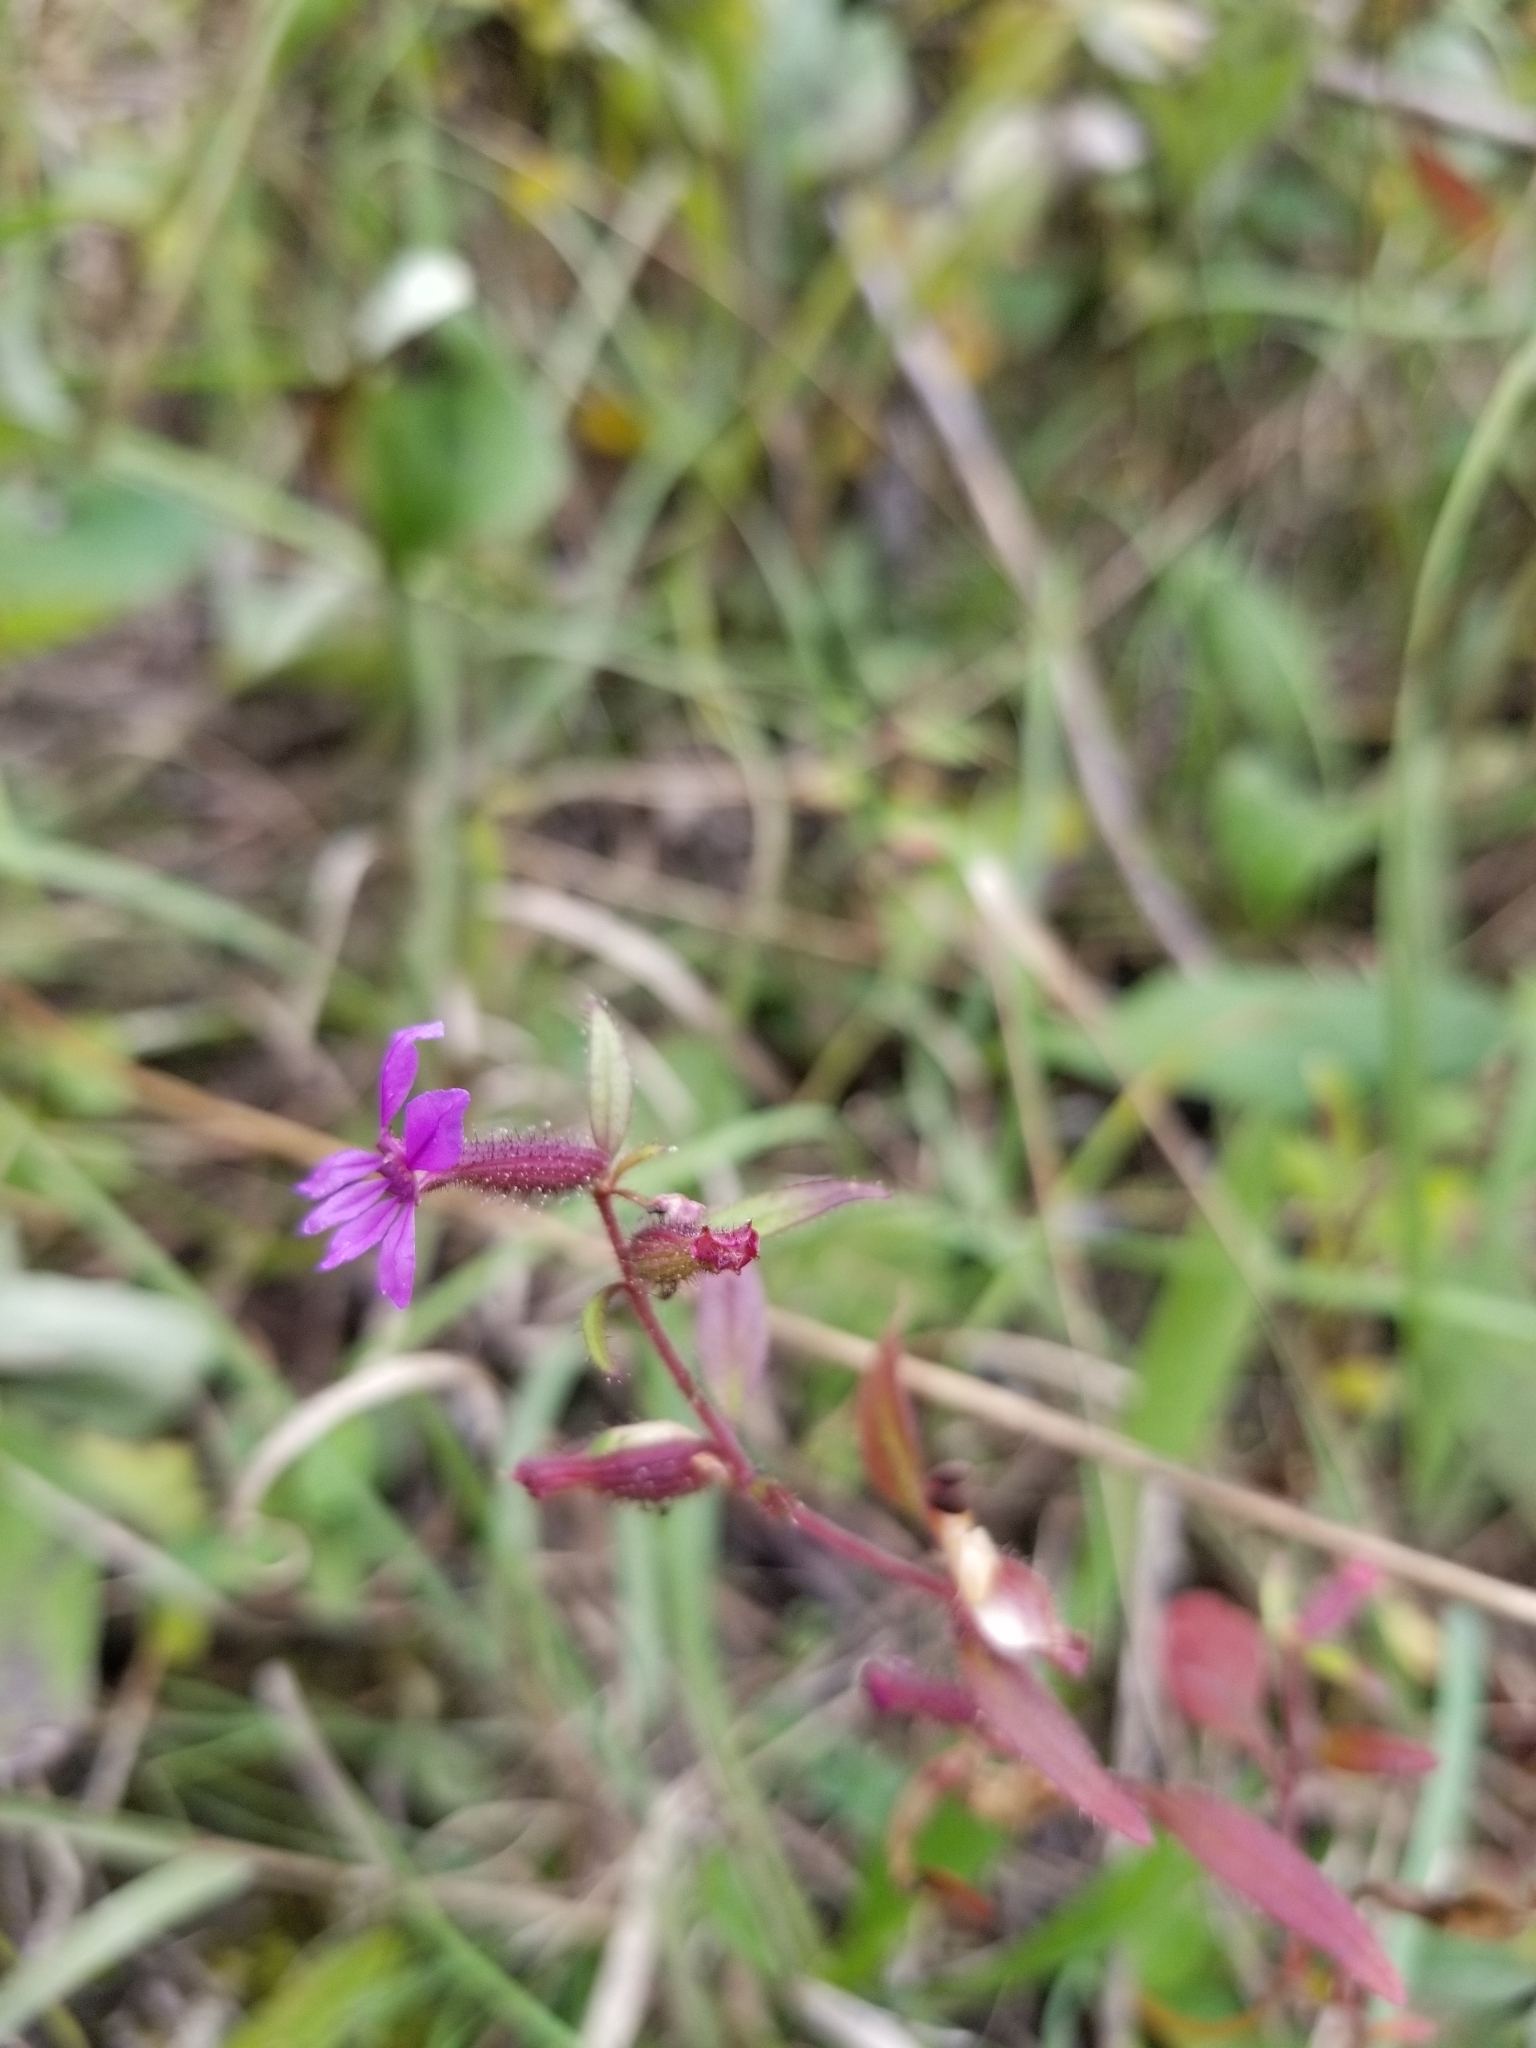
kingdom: Plantae
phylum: Tracheophyta
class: Magnoliopsida
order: Myrtales
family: Lythraceae
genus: Cuphea
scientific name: Cuphea viscosissima
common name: Clammy cuphea
